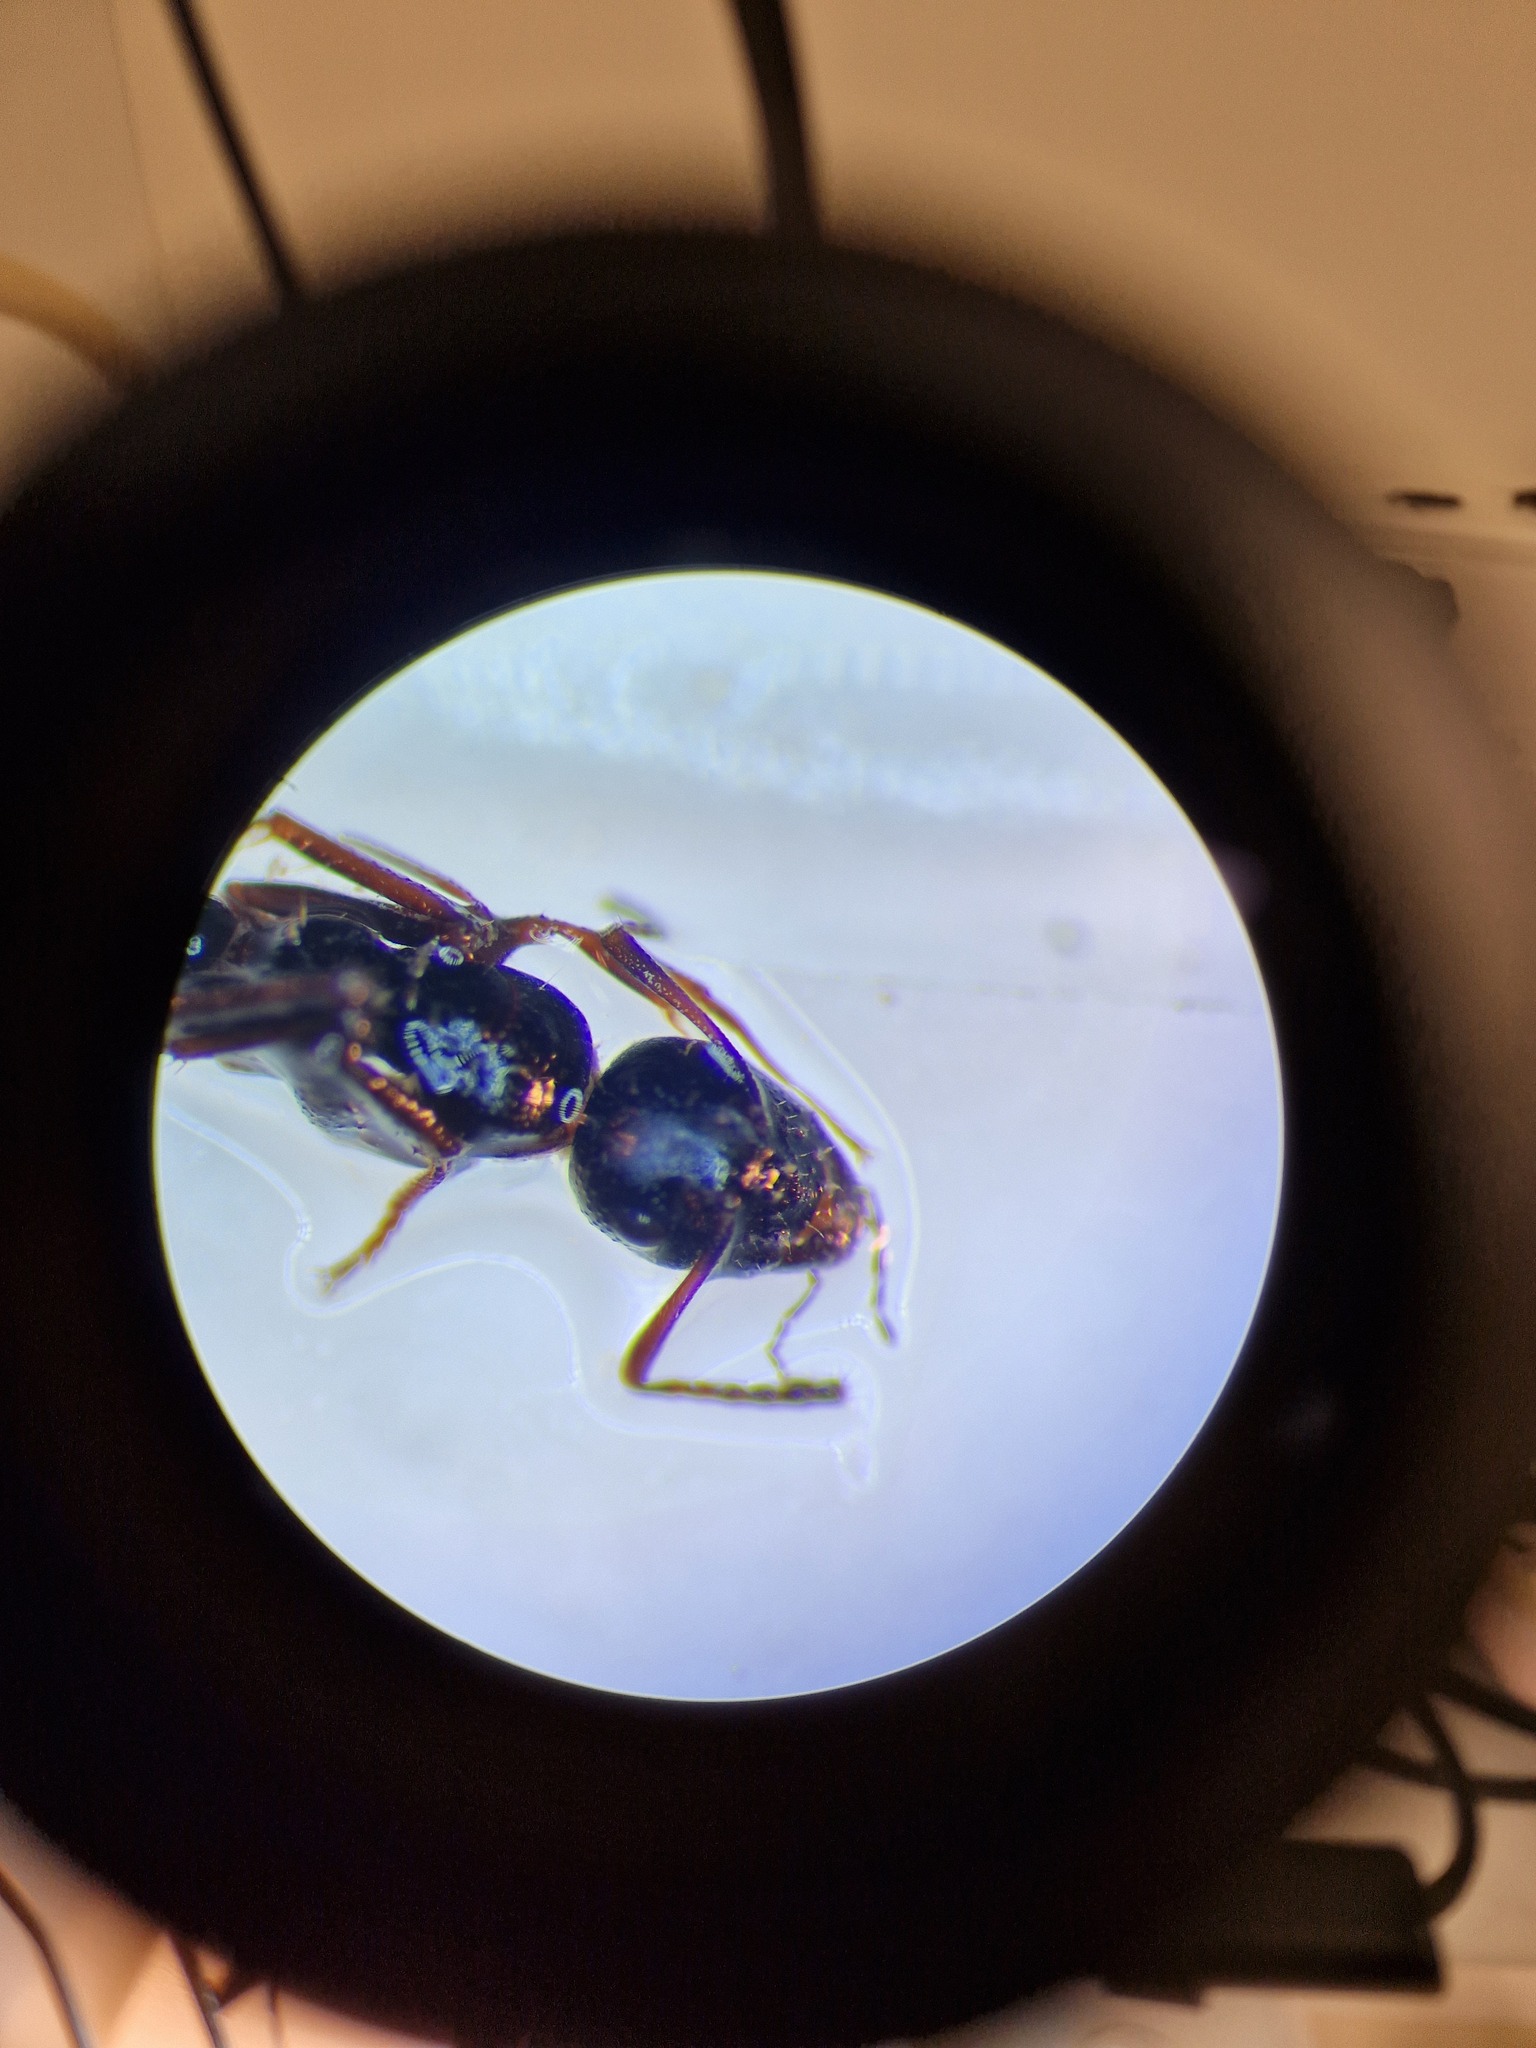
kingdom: Animalia
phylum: Arthropoda
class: Insecta
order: Hymenoptera
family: Formicidae
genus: Camponotus
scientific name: Camponotus piceus
